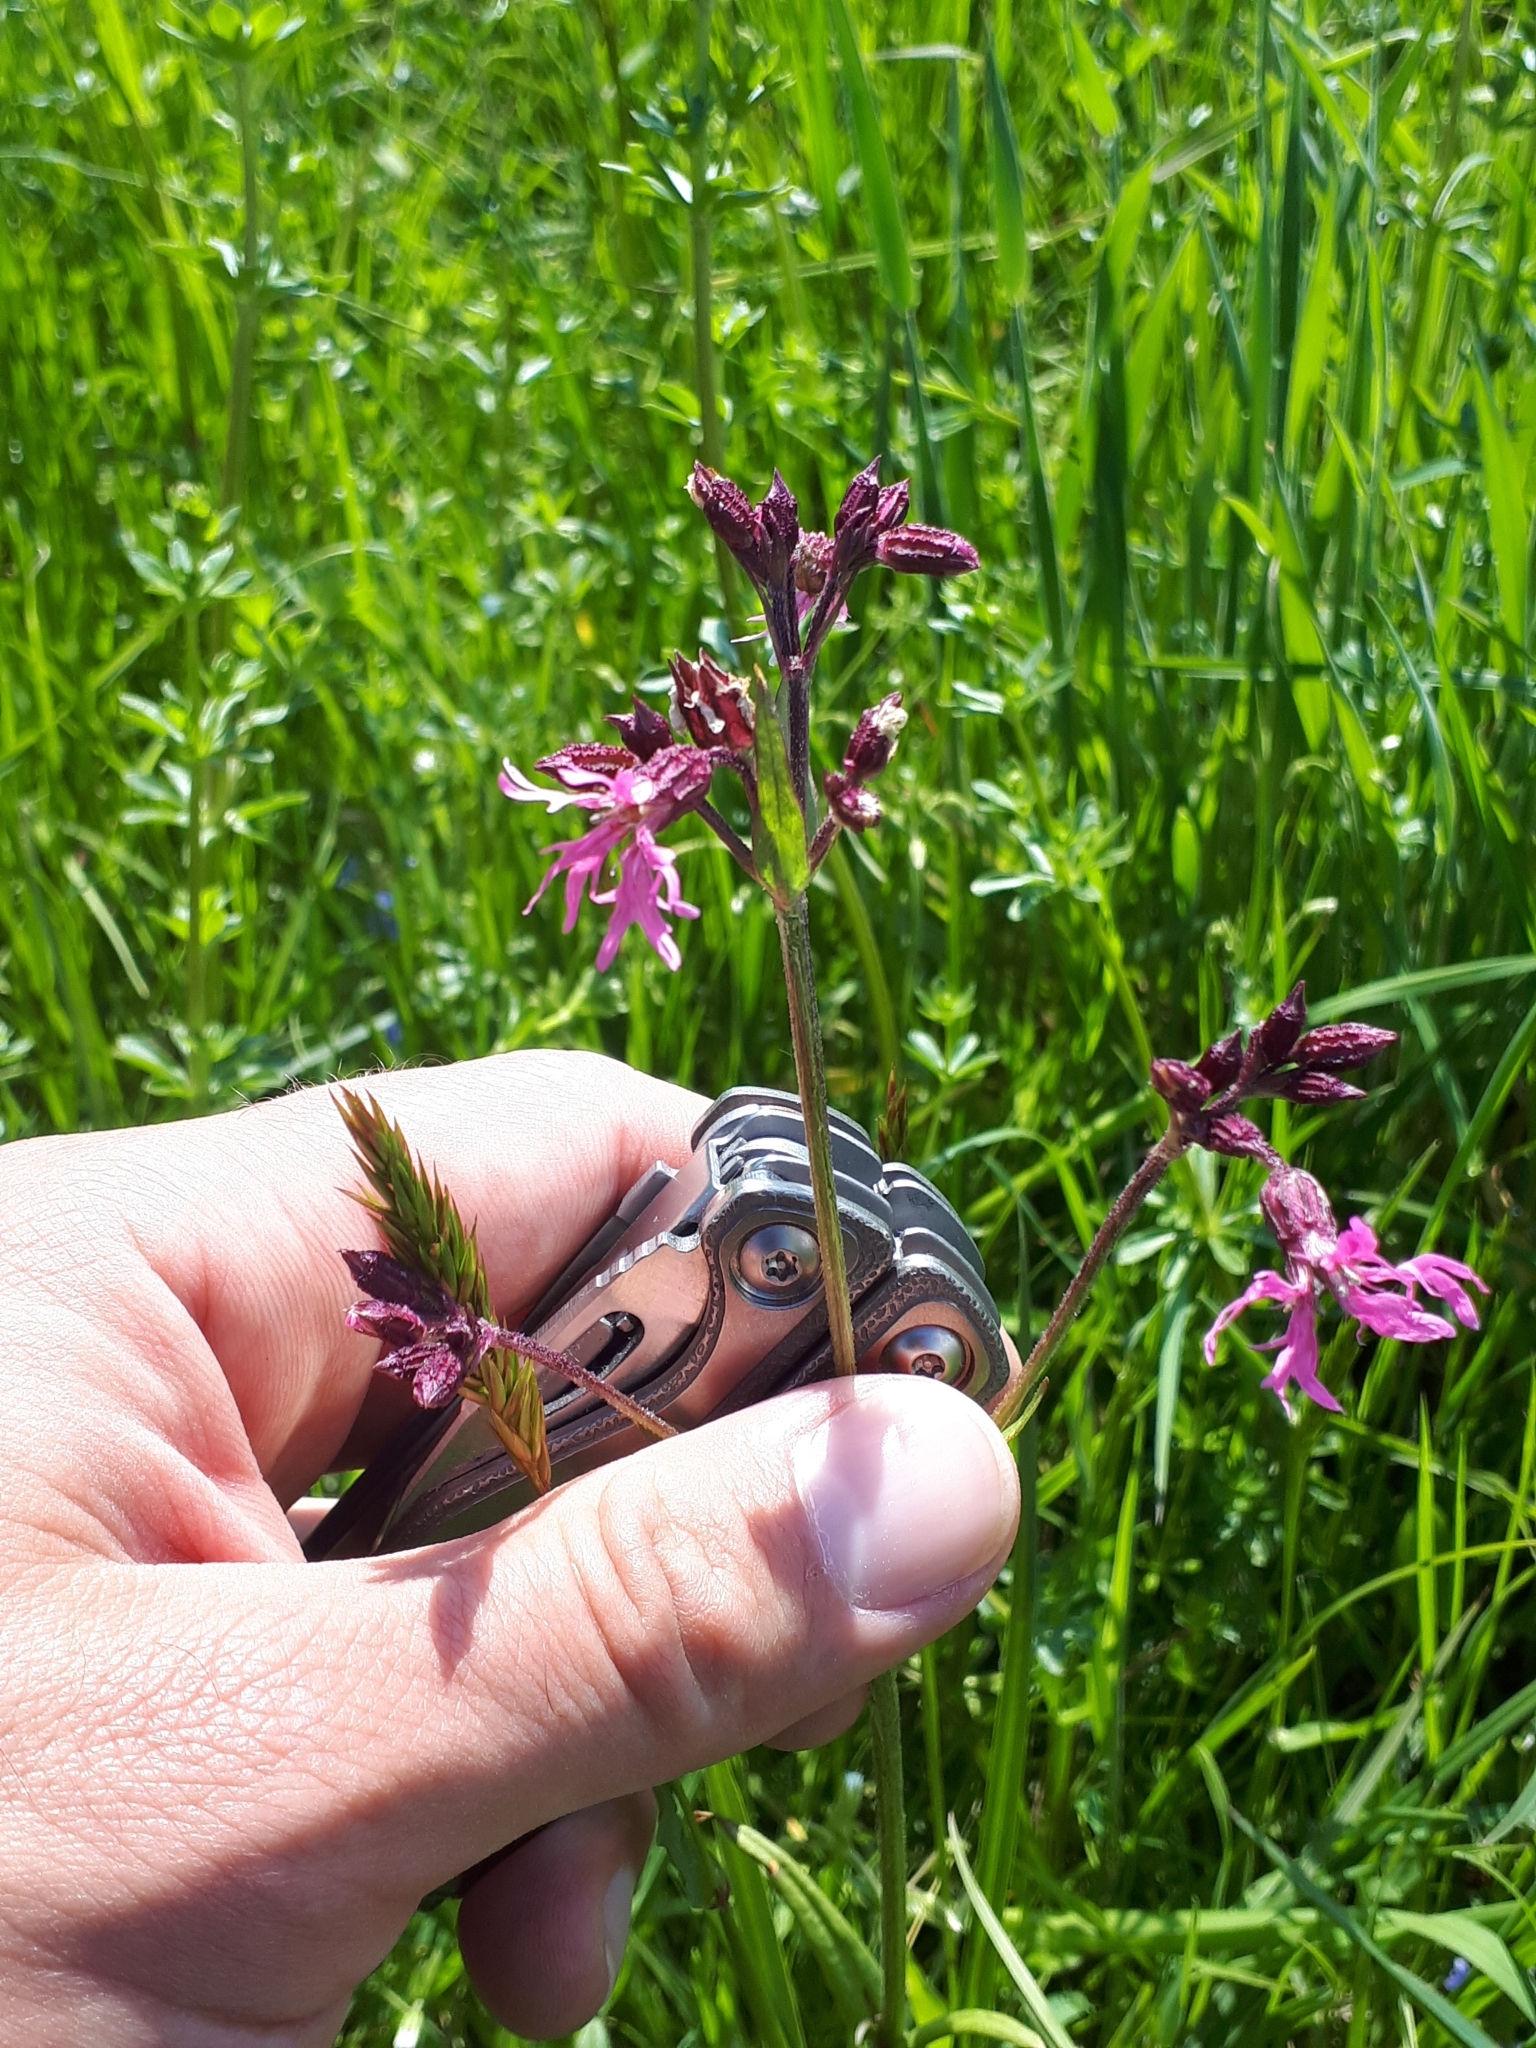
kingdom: Plantae
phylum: Tracheophyta
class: Magnoliopsida
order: Caryophyllales
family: Caryophyllaceae
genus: Silene
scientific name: Silene flos-cuculi
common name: Ragged-robin
